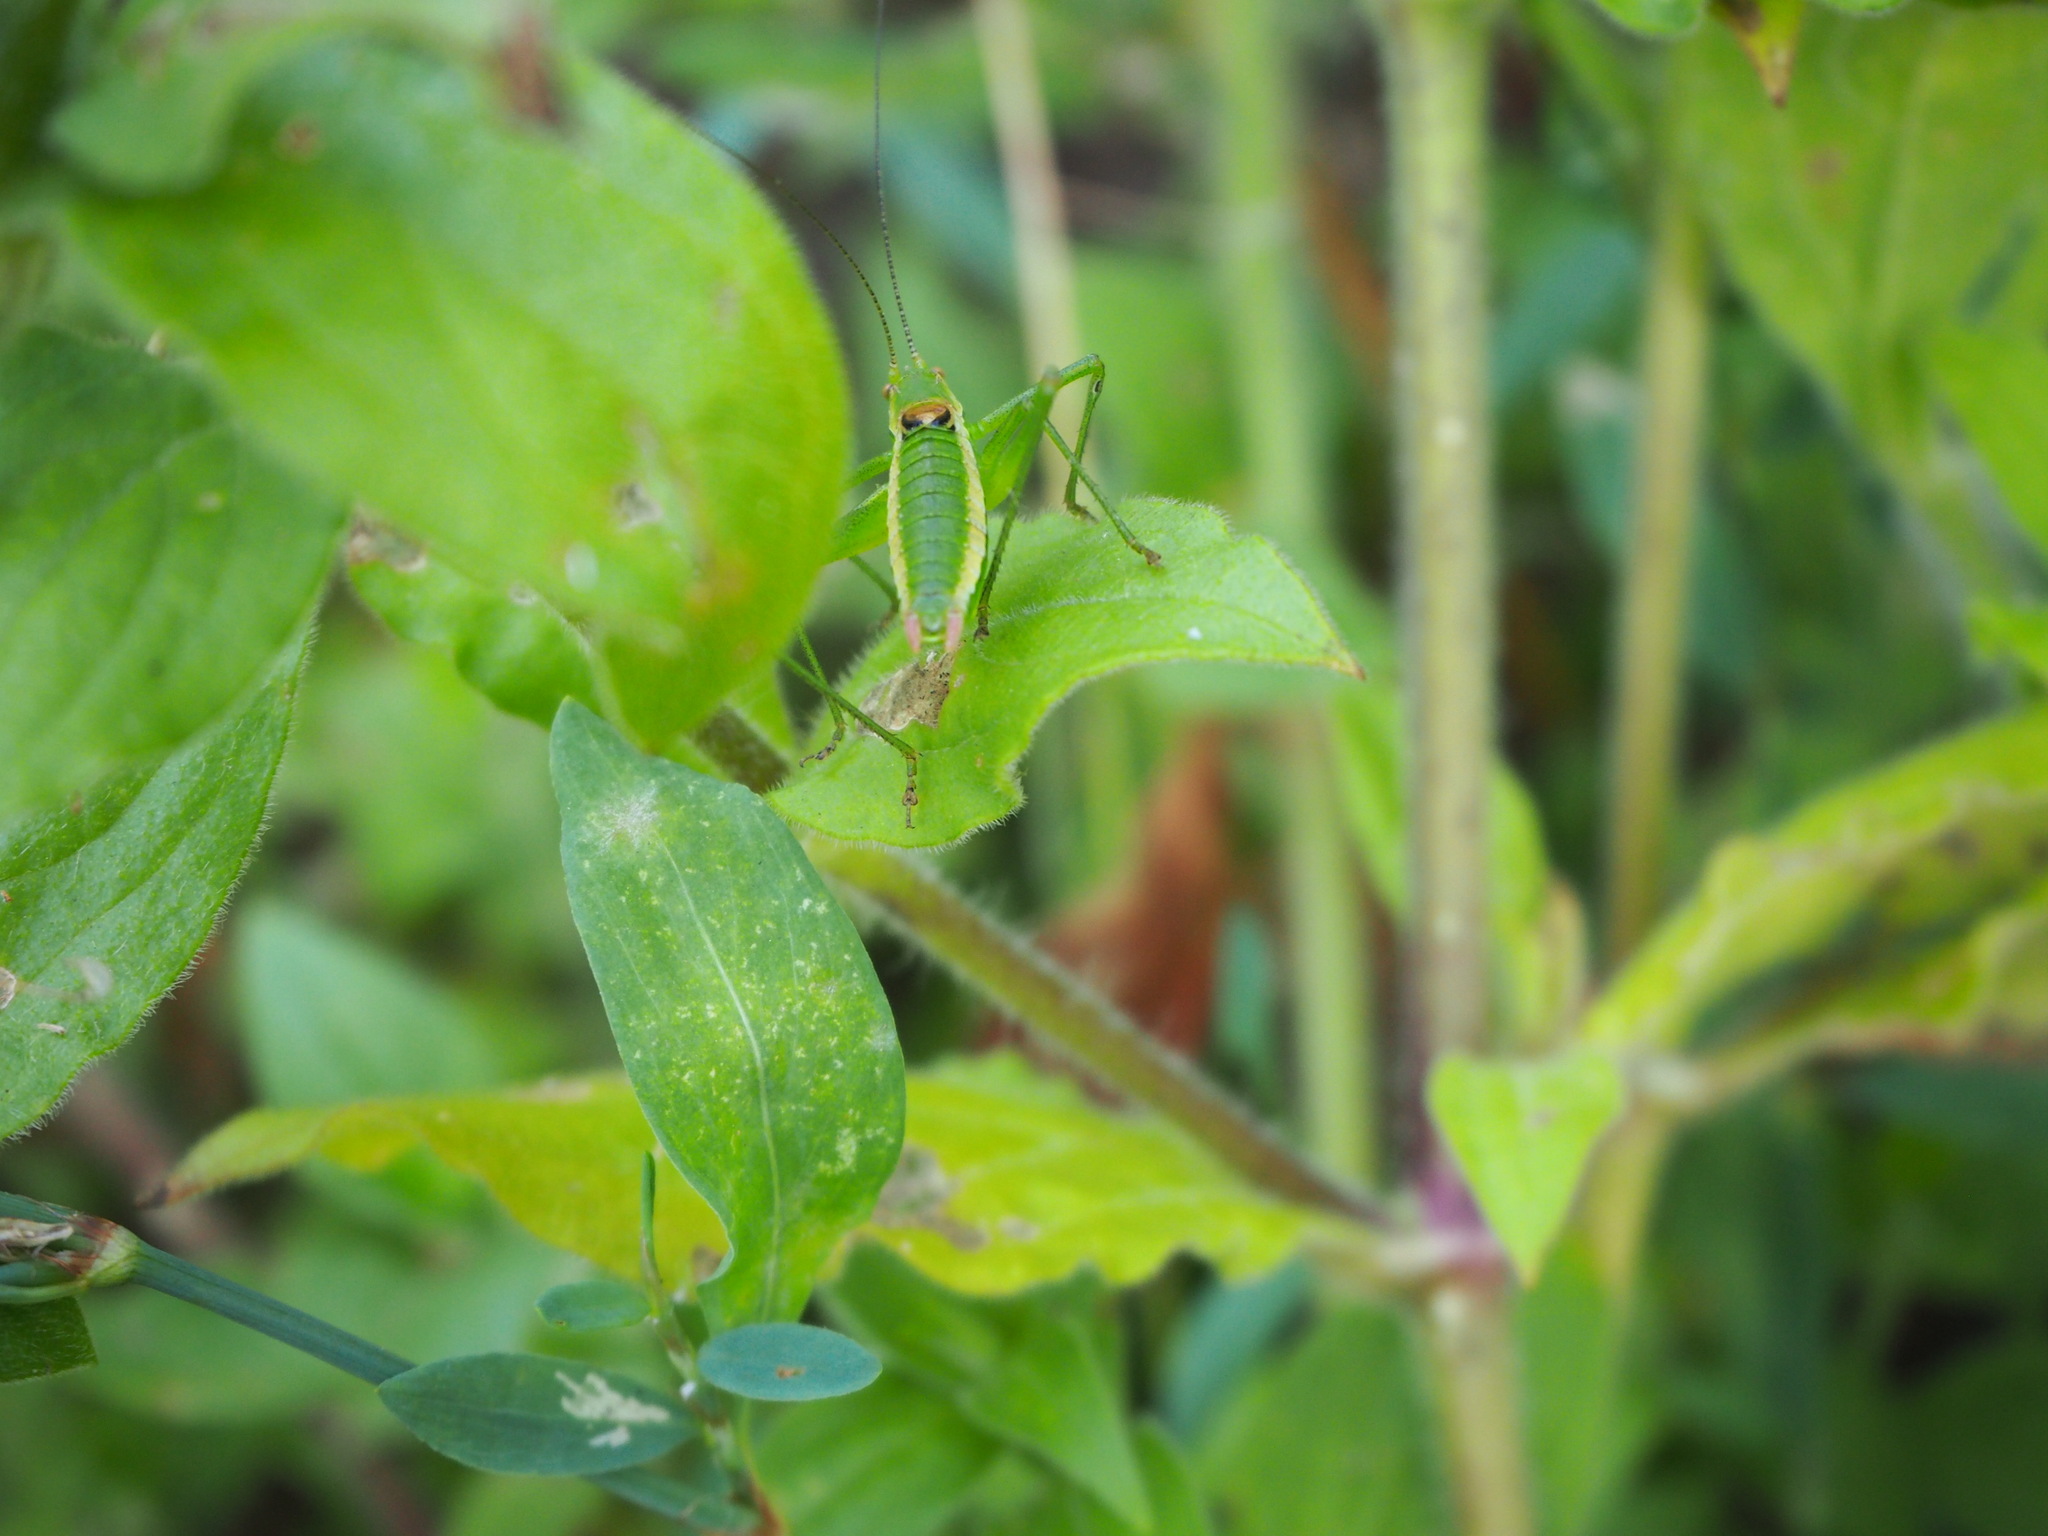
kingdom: Animalia
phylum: Arthropoda
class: Insecta
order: Orthoptera
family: Tettigoniidae
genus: Leptophyes
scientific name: Leptophyes boscii
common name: Balkan speckled bush-cricket
